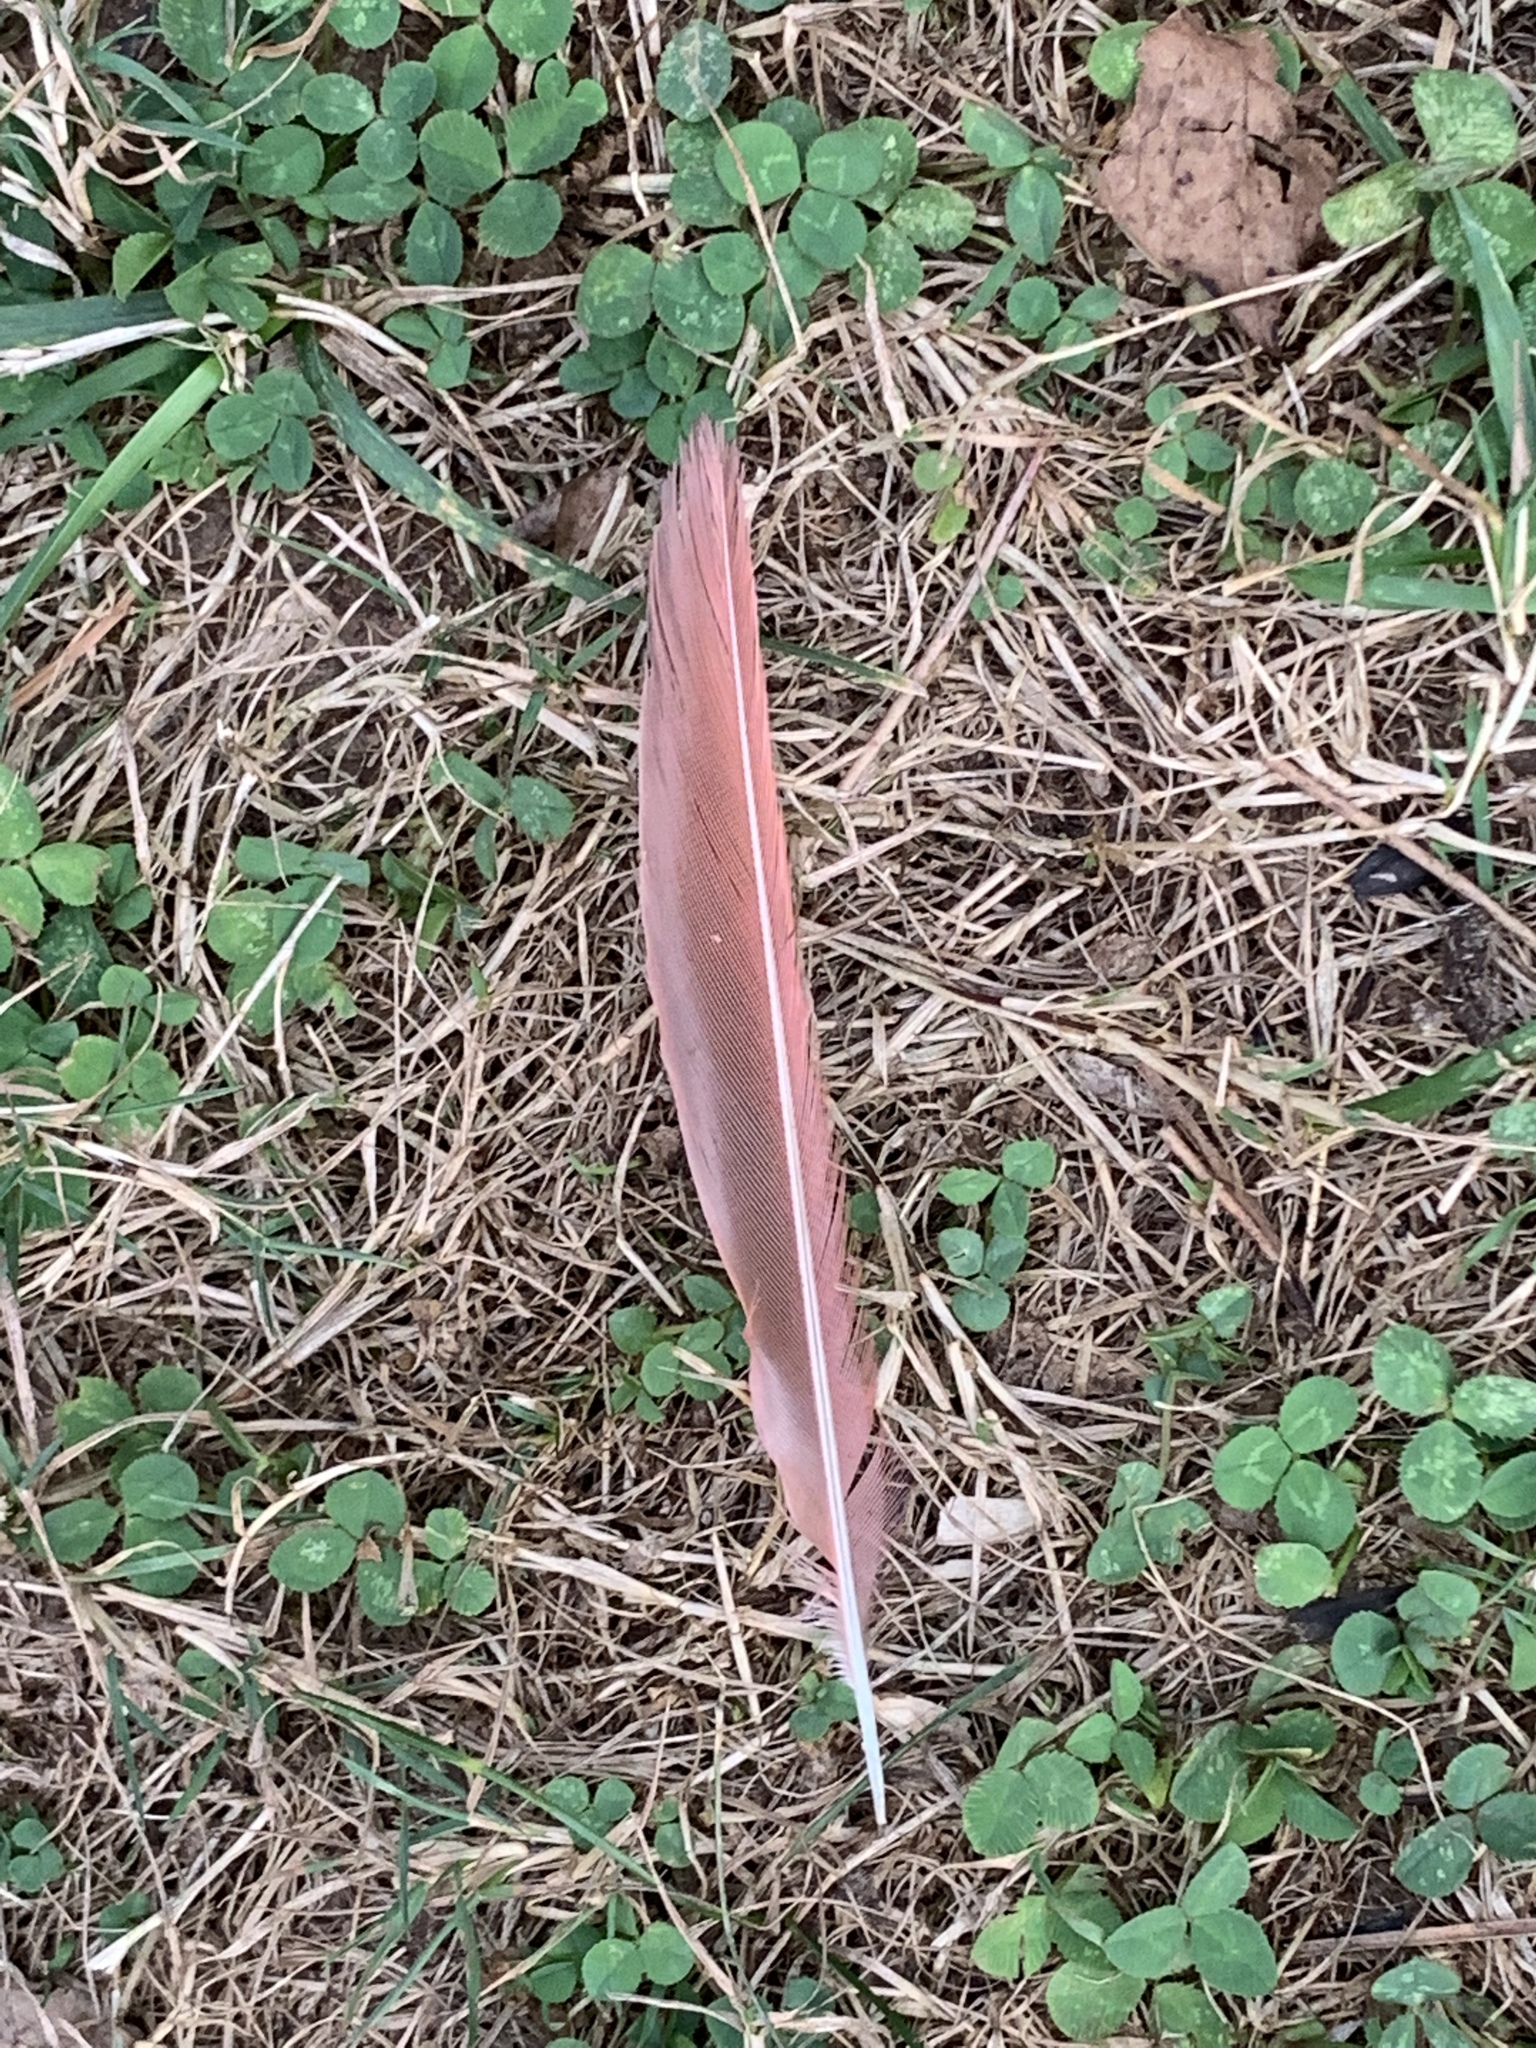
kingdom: Animalia
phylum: Chordata
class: Aves
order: Passeriformes
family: Cardinalidae
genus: Cardinalis
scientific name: Cardinalis cardinalis
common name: Northern cardinal
